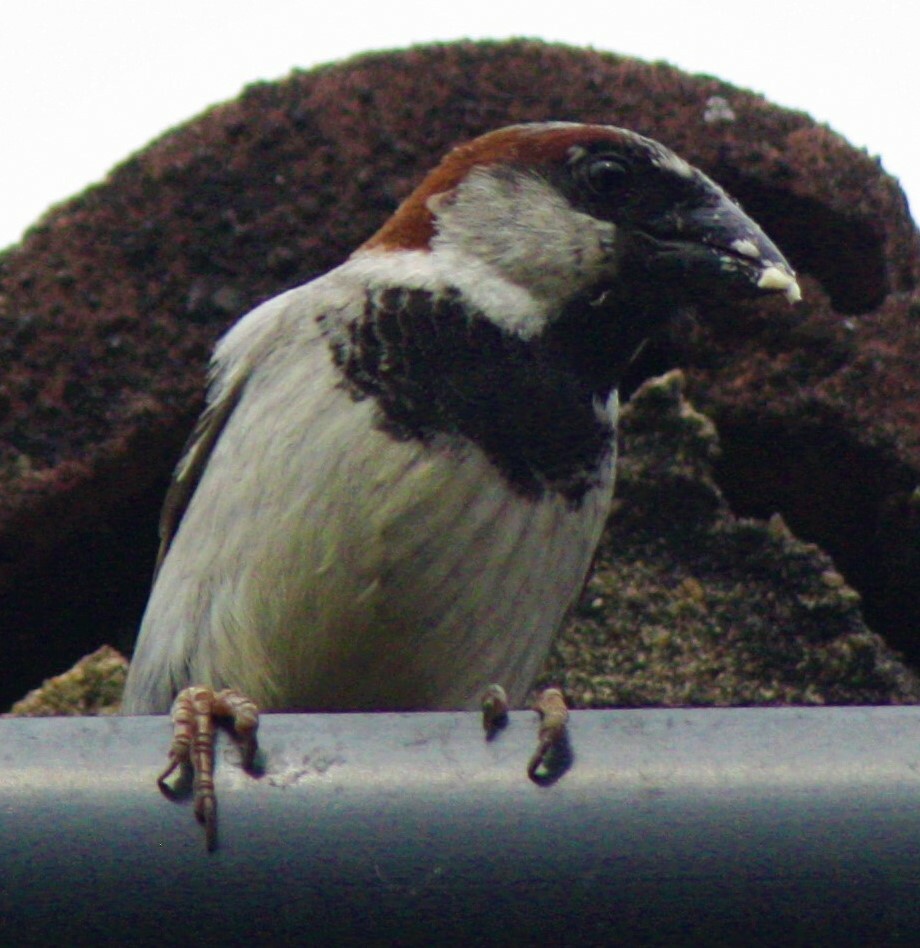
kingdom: Animalia
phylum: Chordata
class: Aves
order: Passeriformes
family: Passeridae
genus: Passer
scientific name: Passer domesticus
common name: House sparrow
